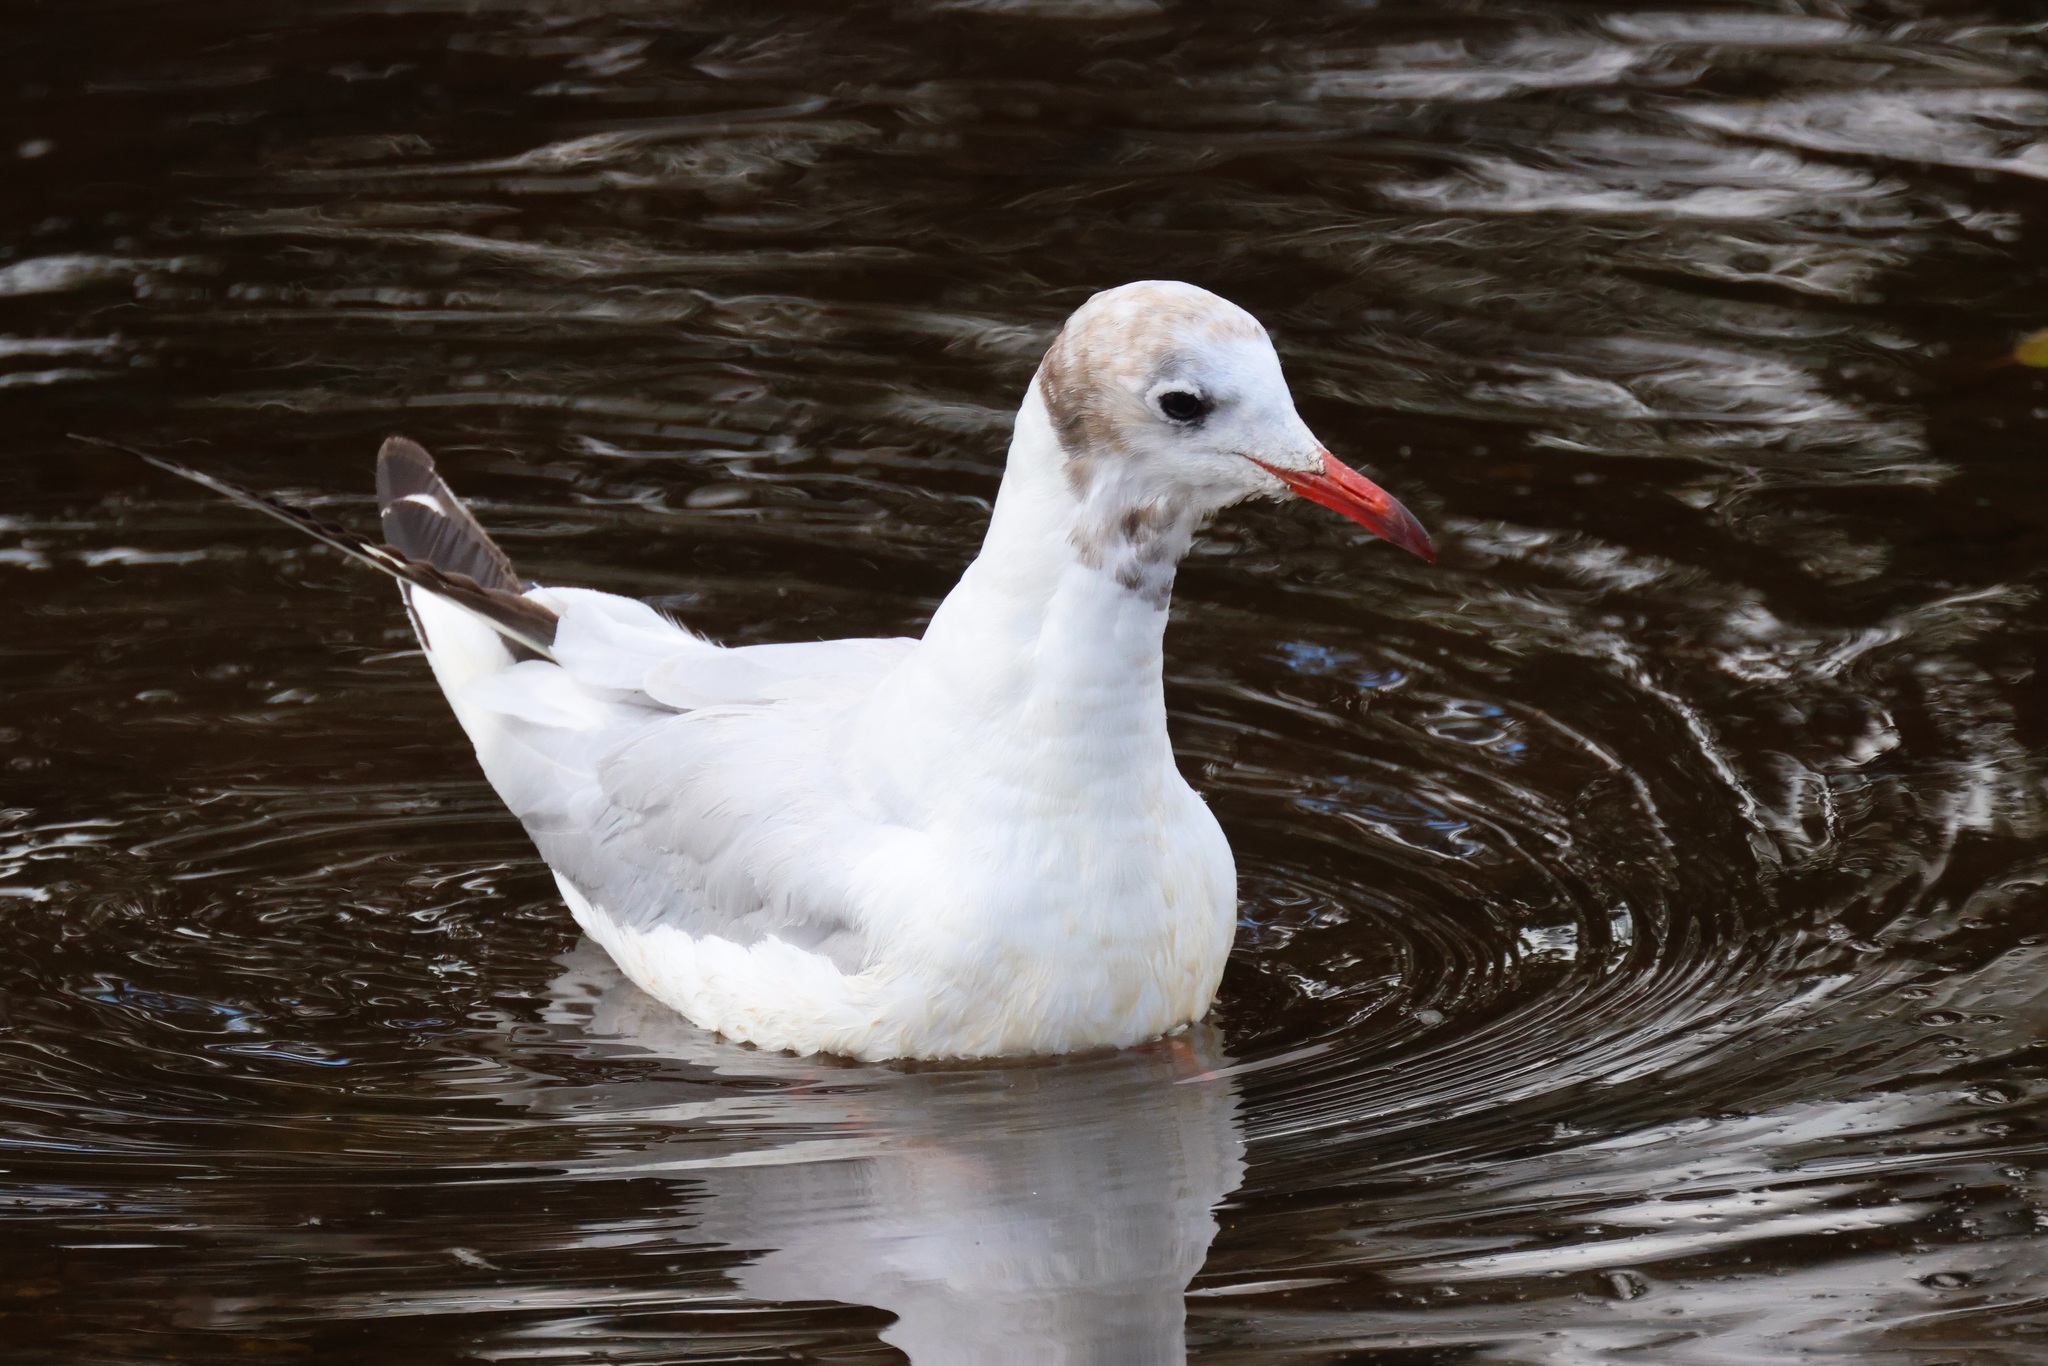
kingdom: Animalia
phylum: Chordata
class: Aves
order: Charadriiformes
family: Laridae
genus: Chroicocephalus
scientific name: Chroicocephalus ridibundus
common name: Black-headed gull
